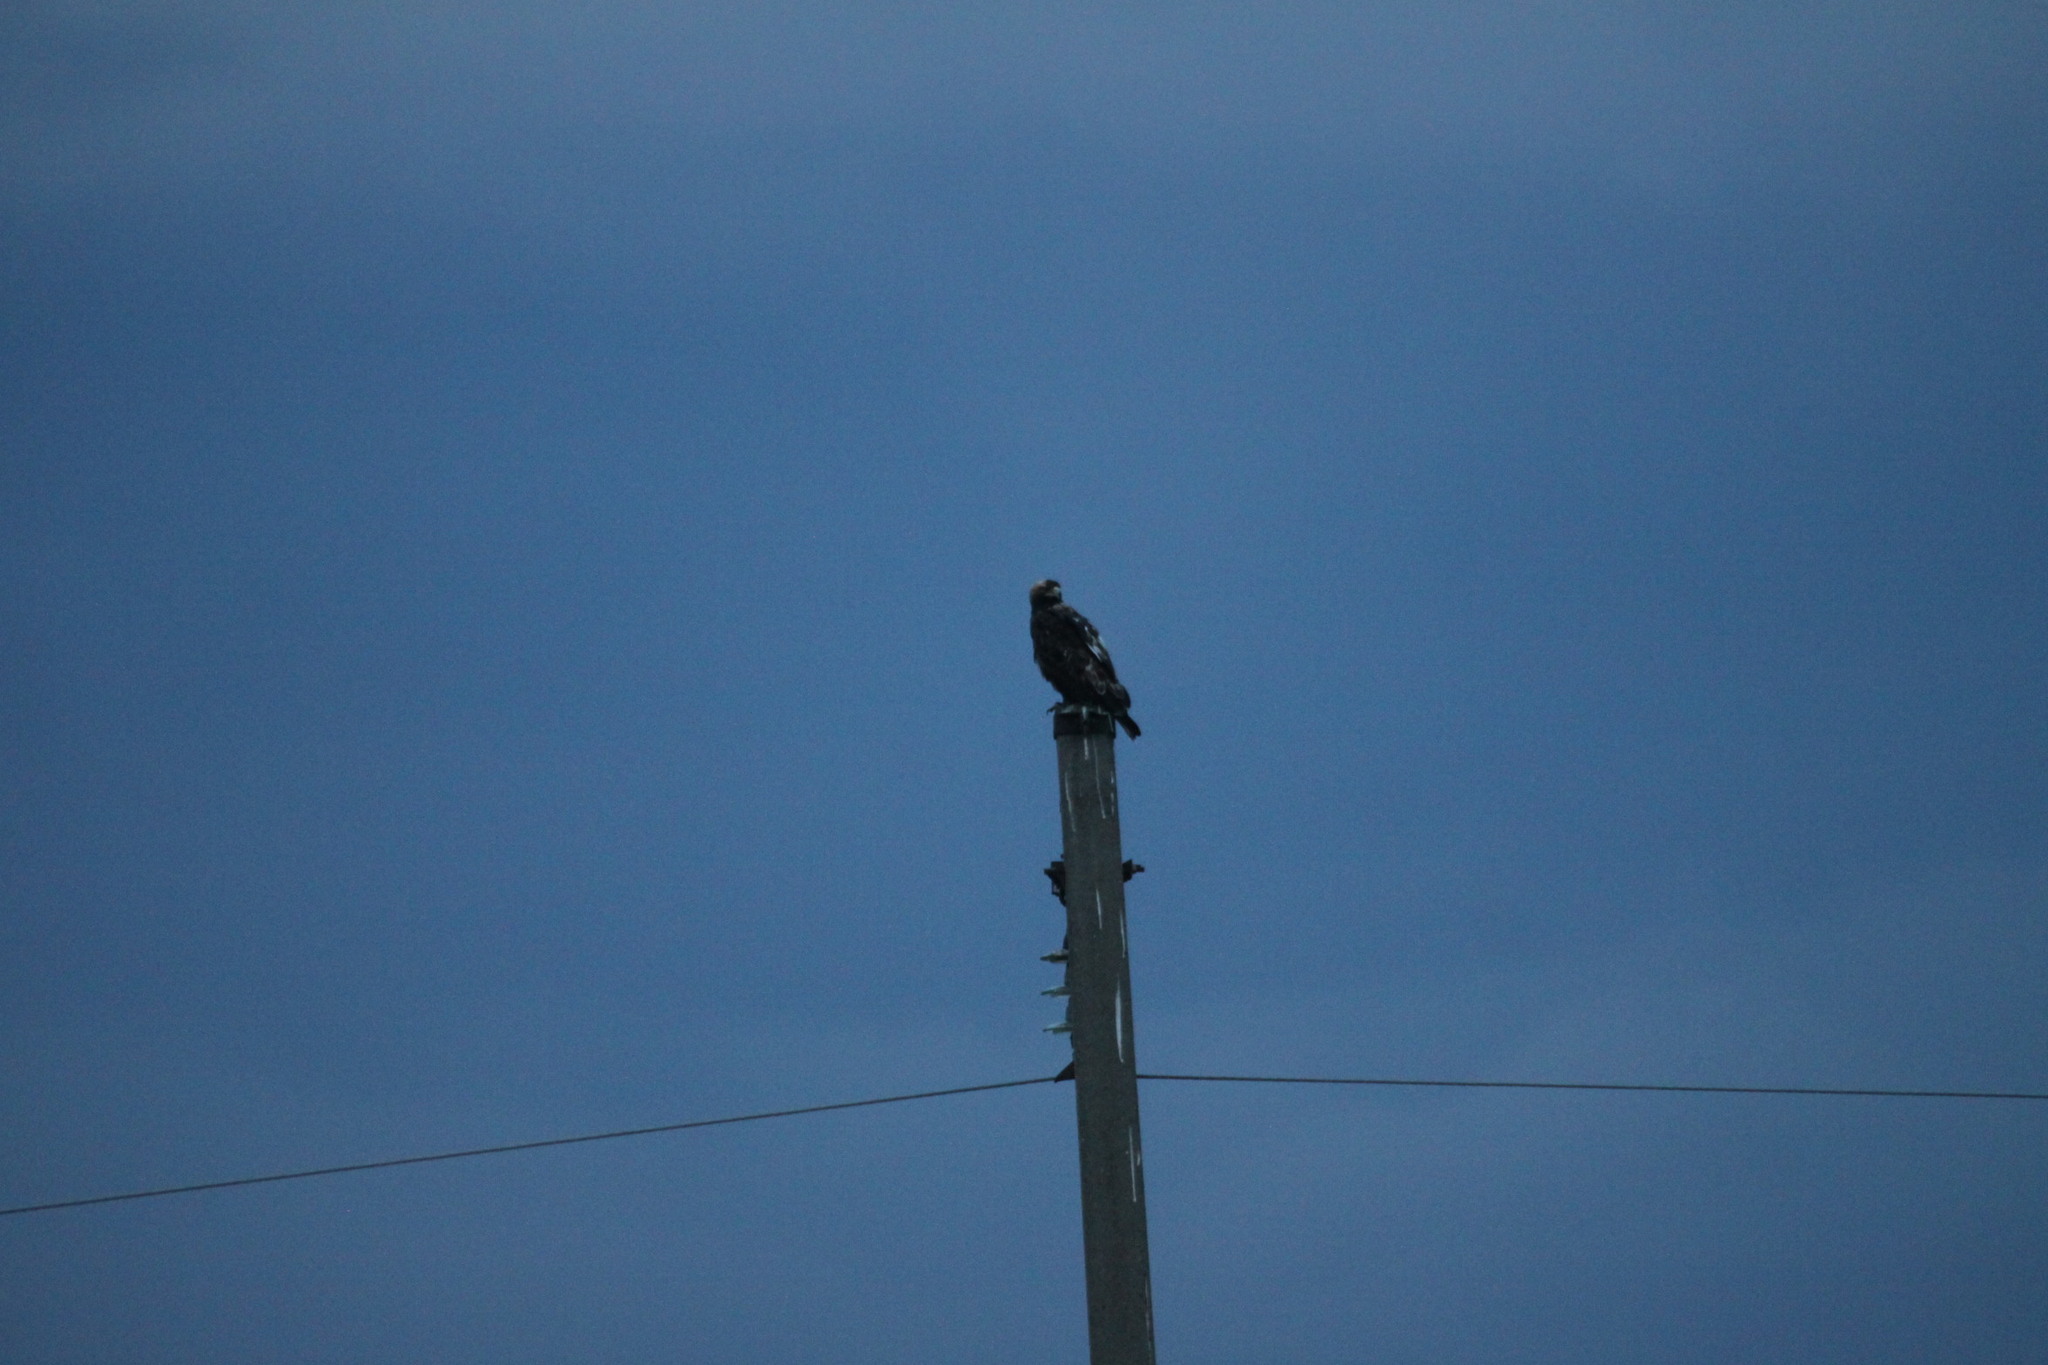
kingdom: Animalia
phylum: Chordata
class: Aves
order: Accipitriformes
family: Accipitridae
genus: Aquila
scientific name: Aquila heliaca
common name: Eastern imperial eagle
